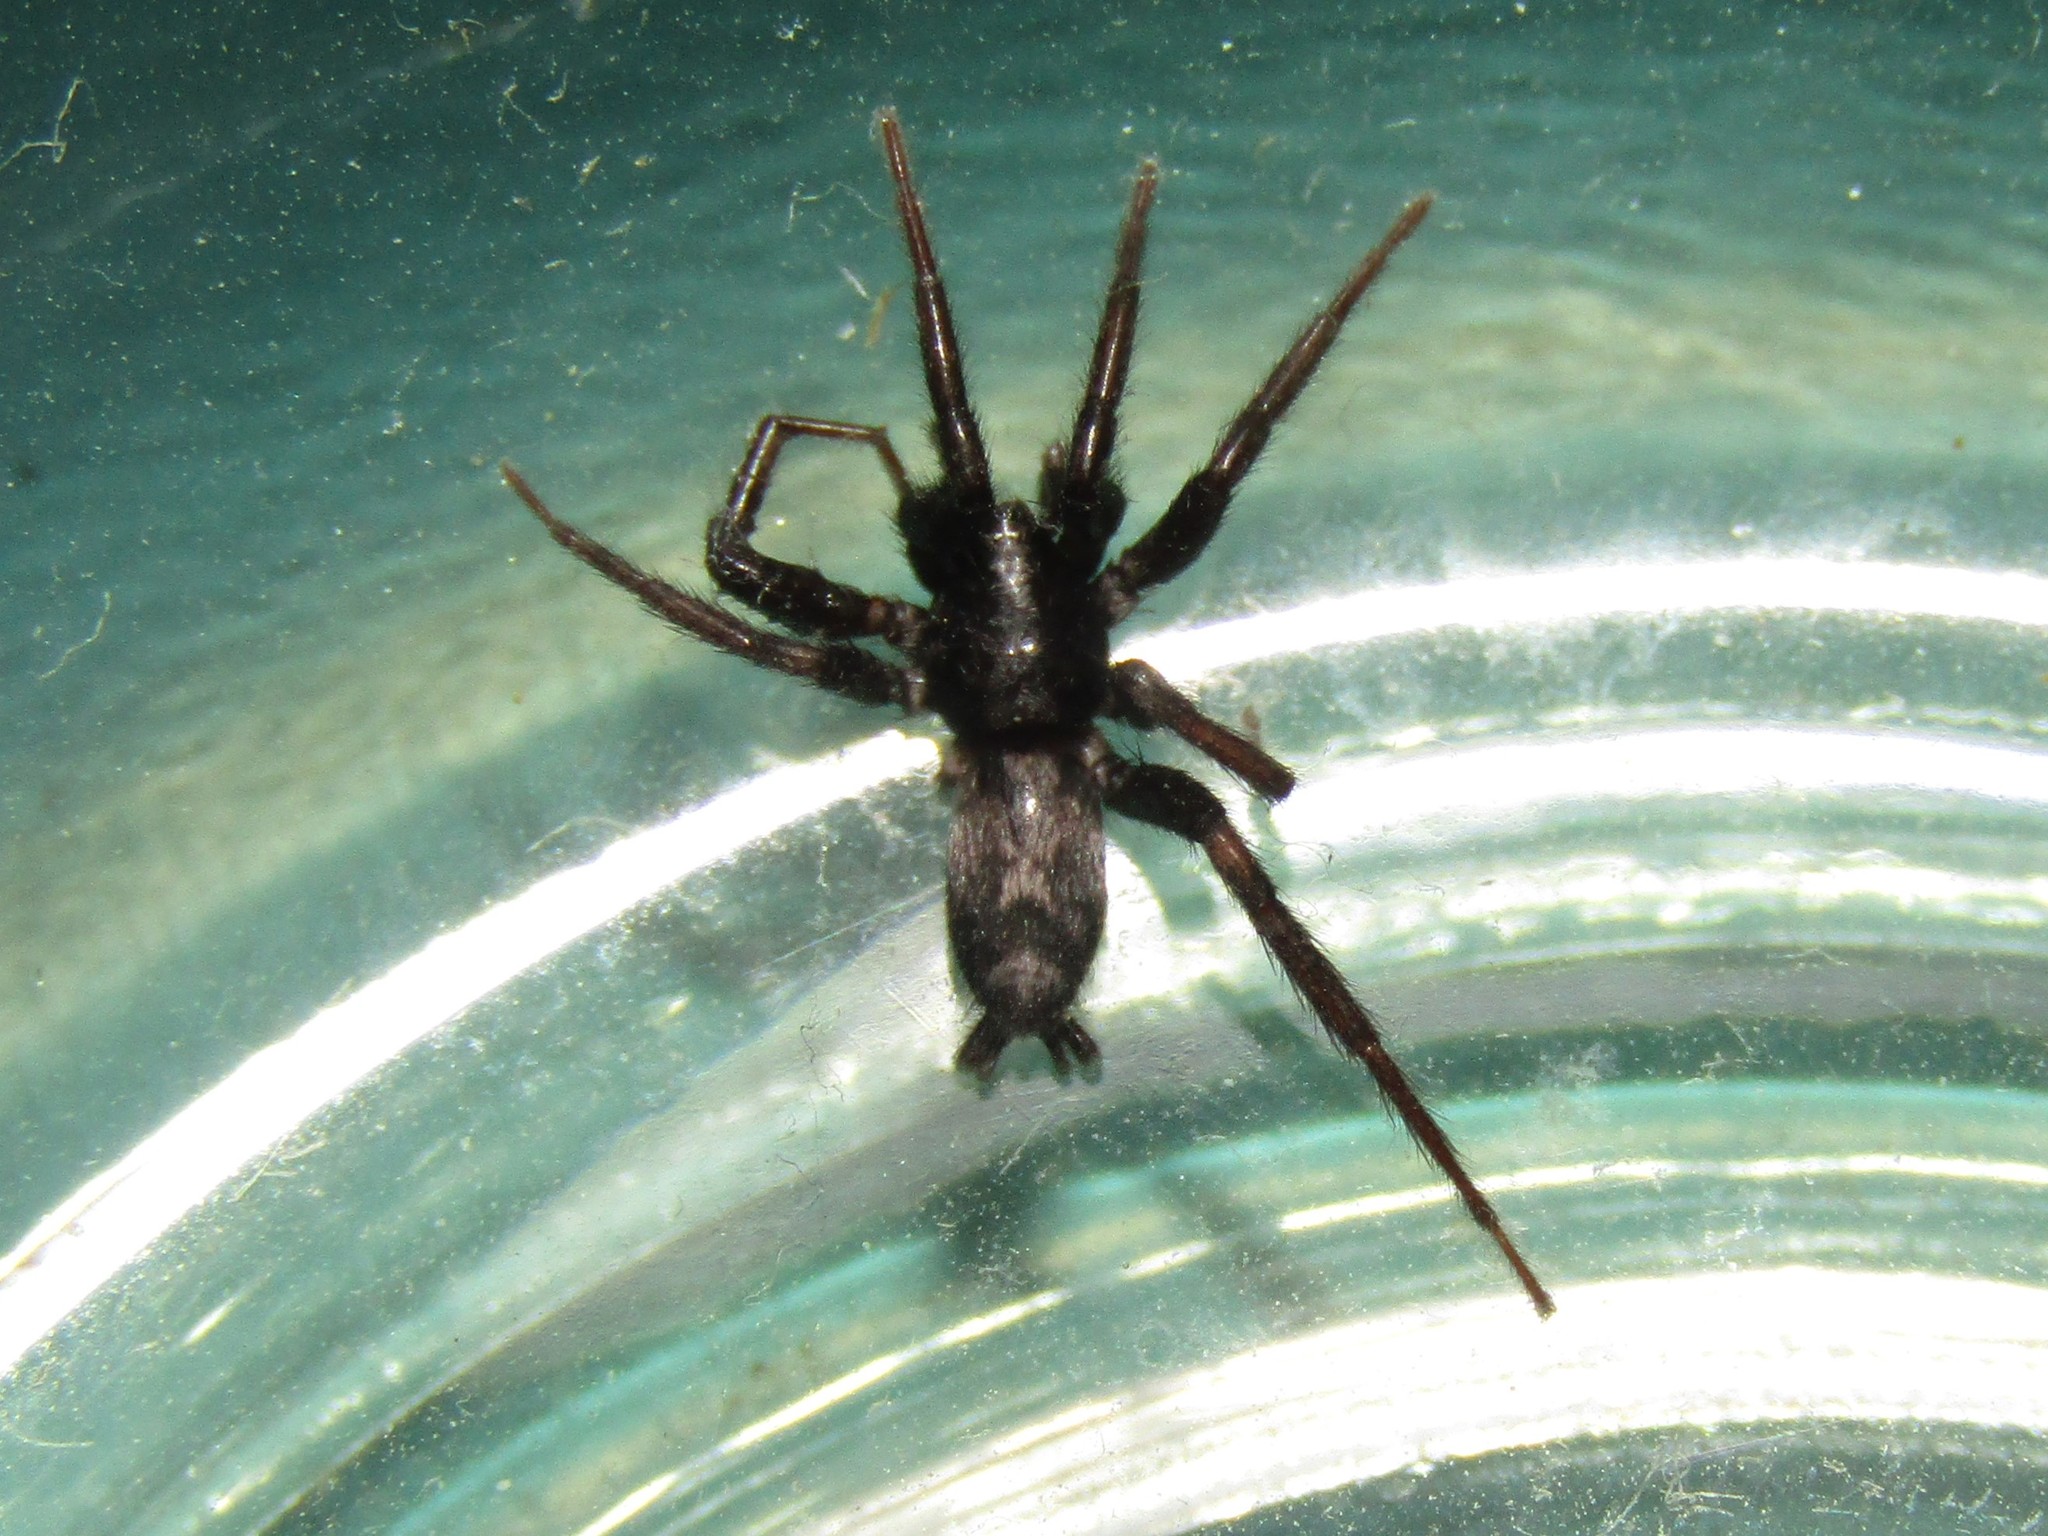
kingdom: Animalia
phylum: Arthropoda
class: Arachnida
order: Araneae
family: Gnaphosidae
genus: Herpyllus
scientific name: Herpyllus ecclesiasticus
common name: Eastern parson spider
